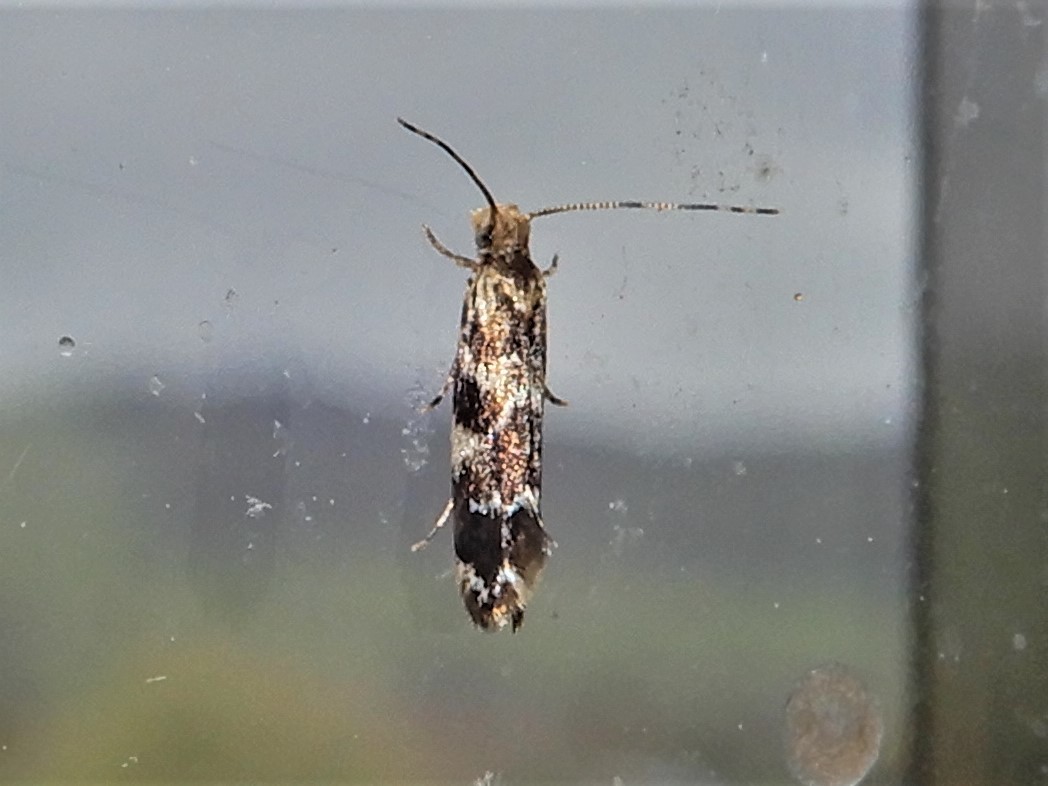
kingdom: Animalia
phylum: Arthropoda
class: Insecta
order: Lepidoptera
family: Dryadaulidae
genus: Dryadaula
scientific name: Dryadaula pactolia
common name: Cellar clothes
